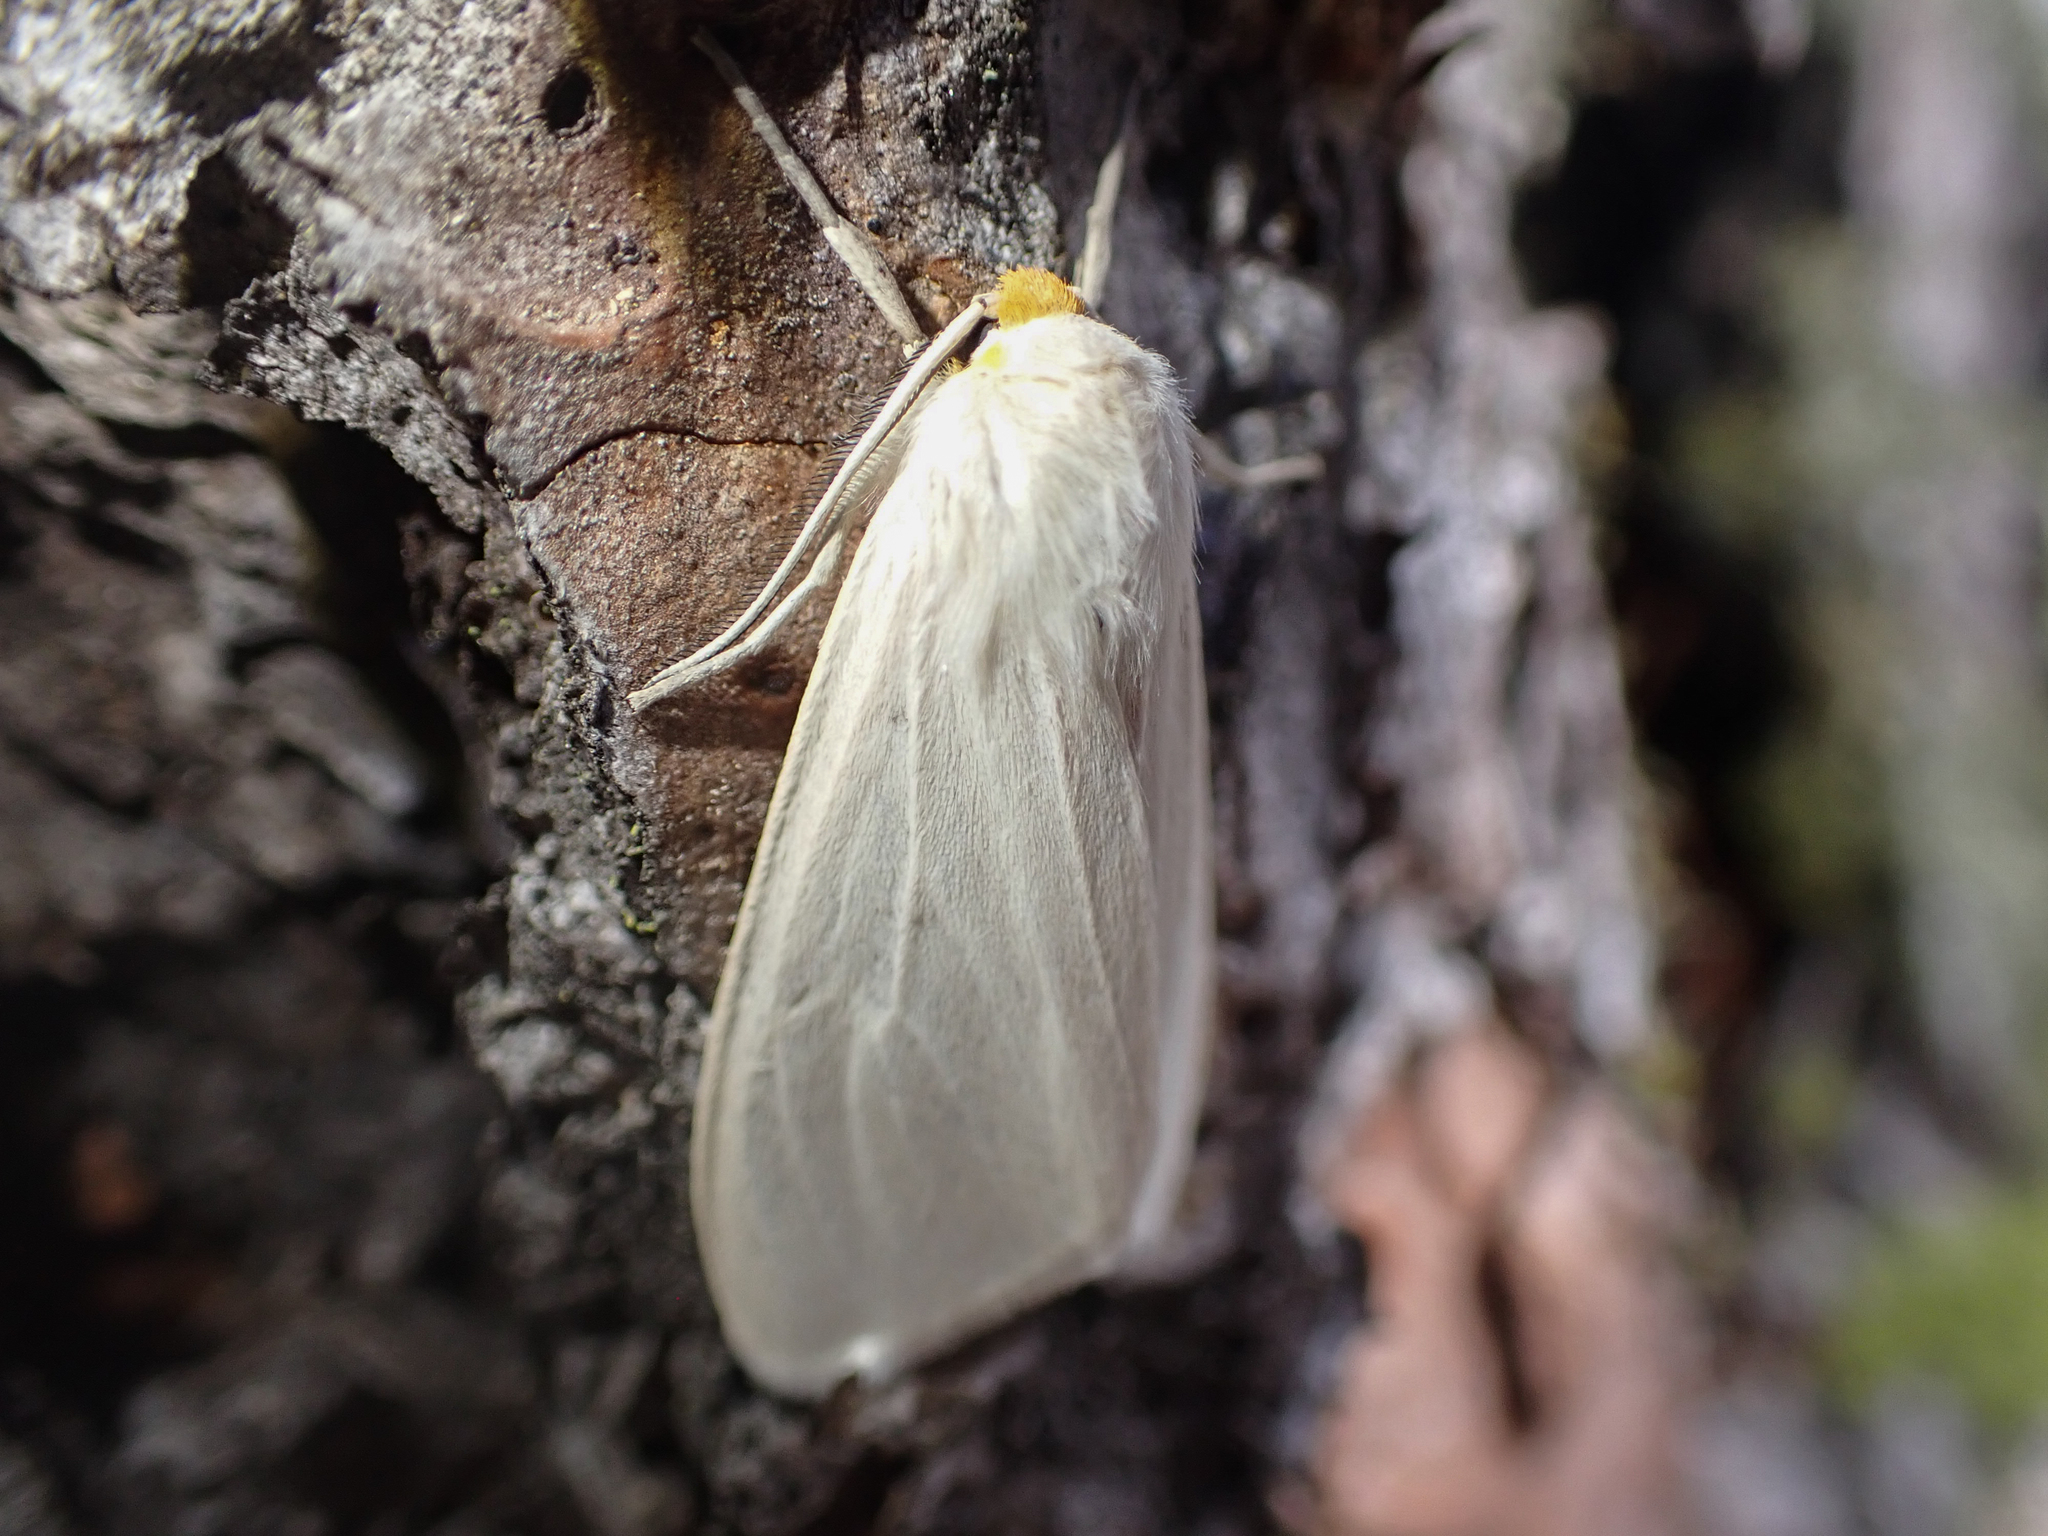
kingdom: Animalia
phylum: Arthropoda
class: Insecta
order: Lepidoptera
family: Erebidae
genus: Cycnia
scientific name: Cycnia oregonensis
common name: Oregon cycnia moth
